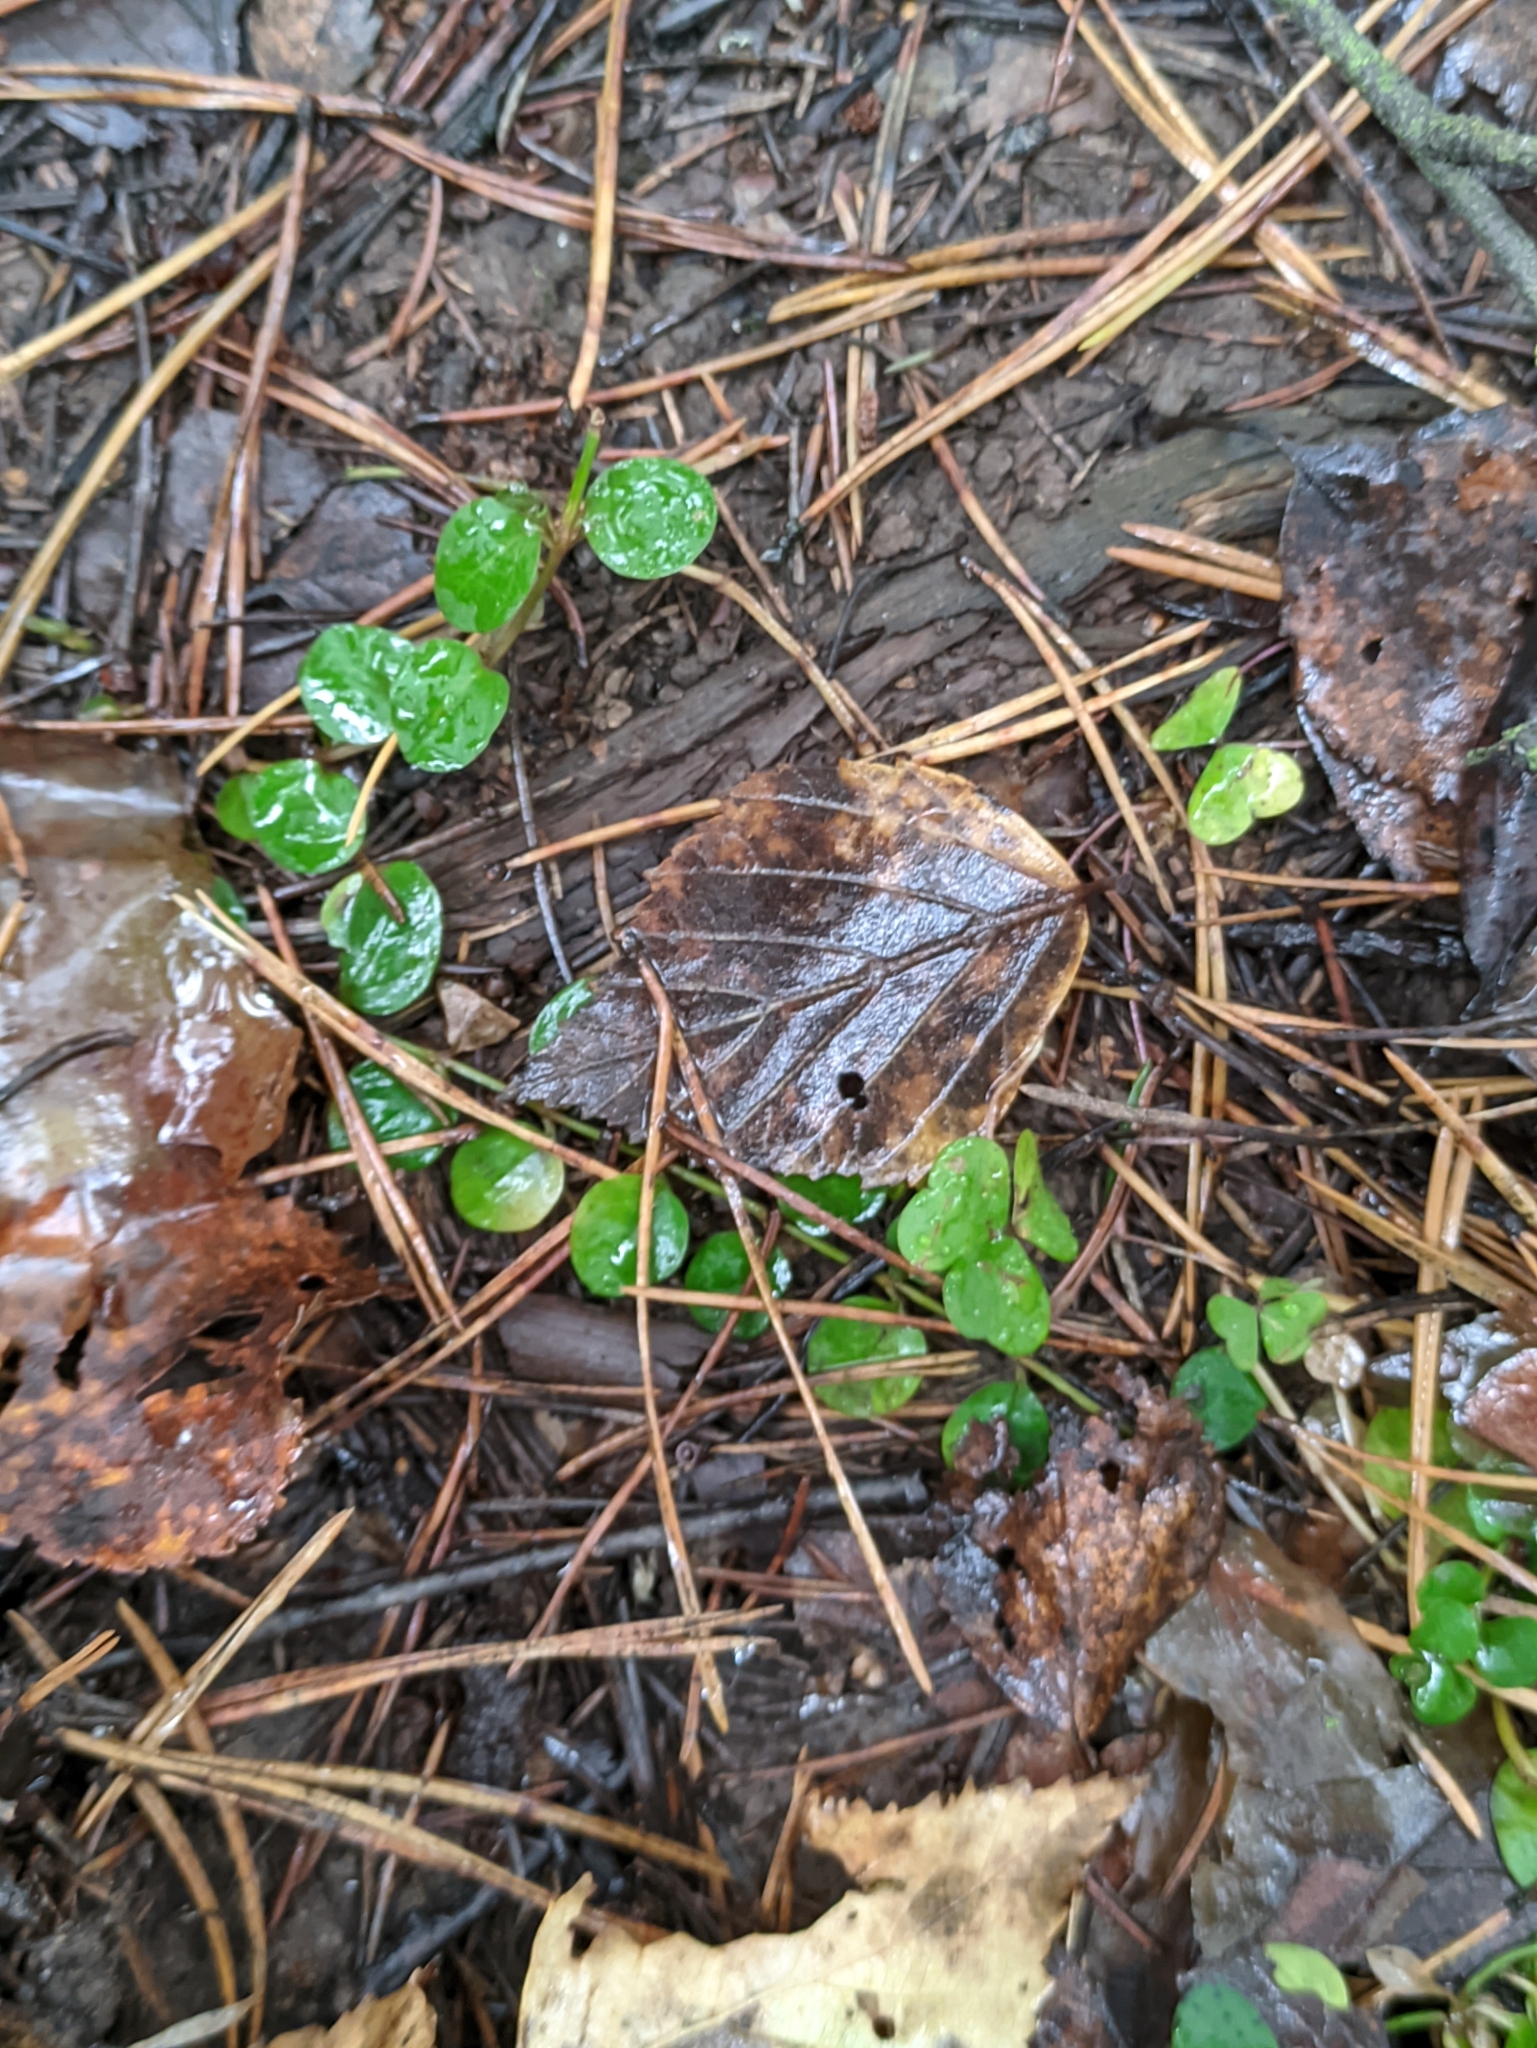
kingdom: Plantae
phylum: Tracheophyta
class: Magnoliopsida
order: Ericales
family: Primulaceae
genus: Lysimachia
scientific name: Lysimachia nummularia
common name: Moneywort
